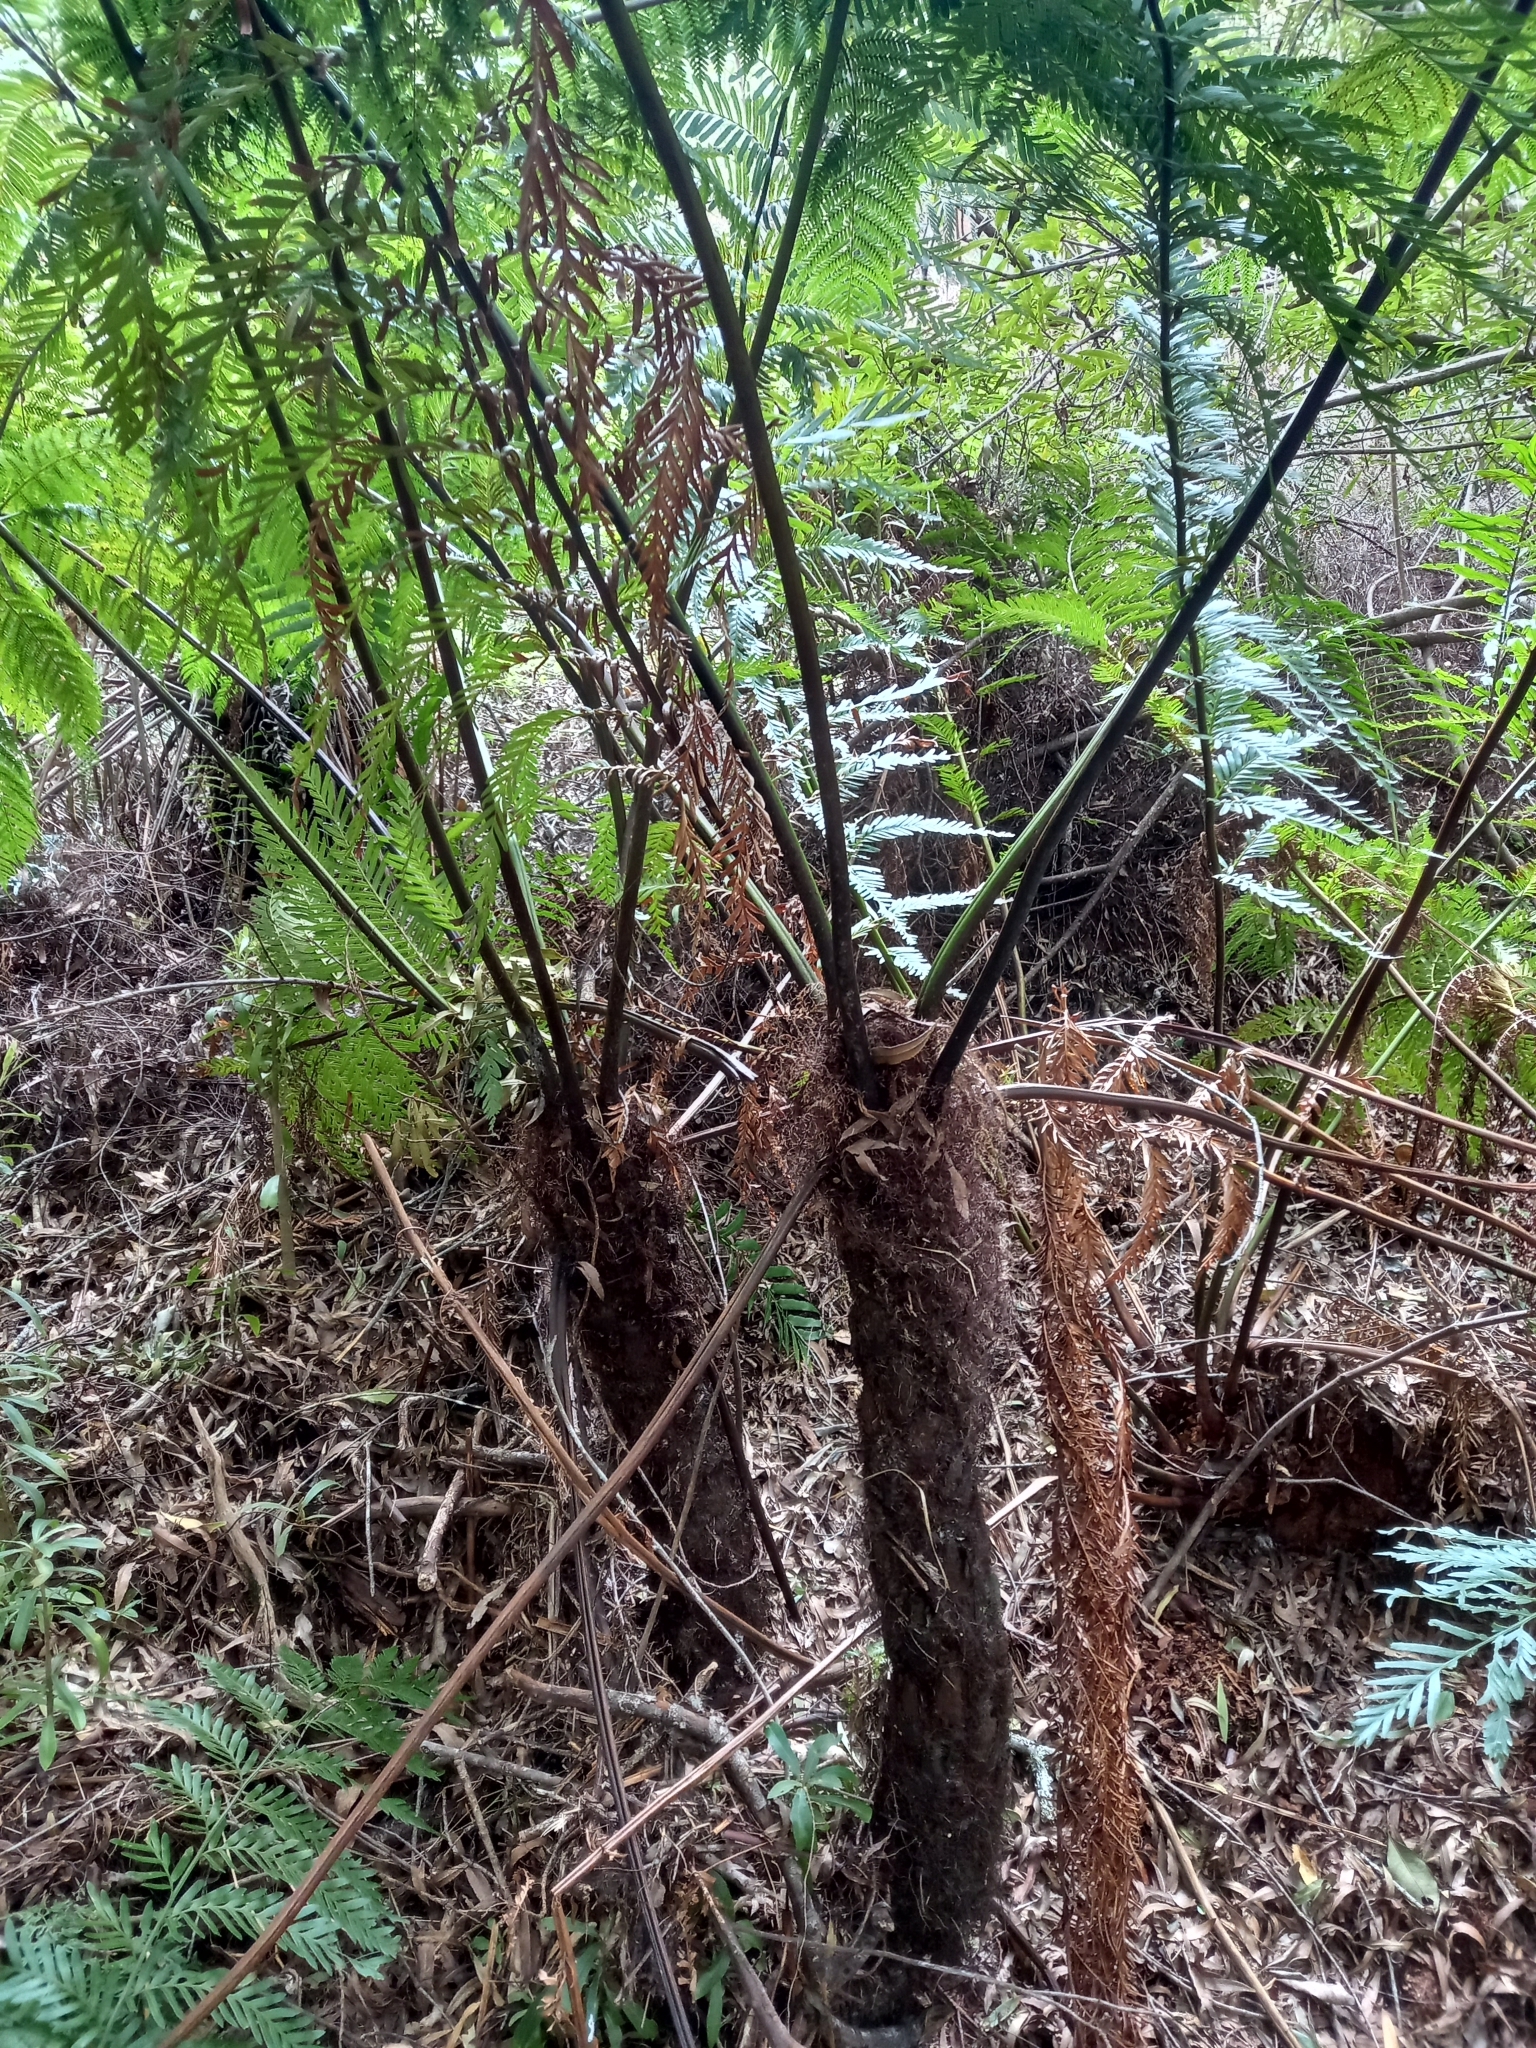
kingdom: Plantae
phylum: Tracheophyta
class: Polypodiopsida
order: Cyatheales
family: Cyatheaceae
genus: Gymnosphaera
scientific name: Gymnosphaera capensis
